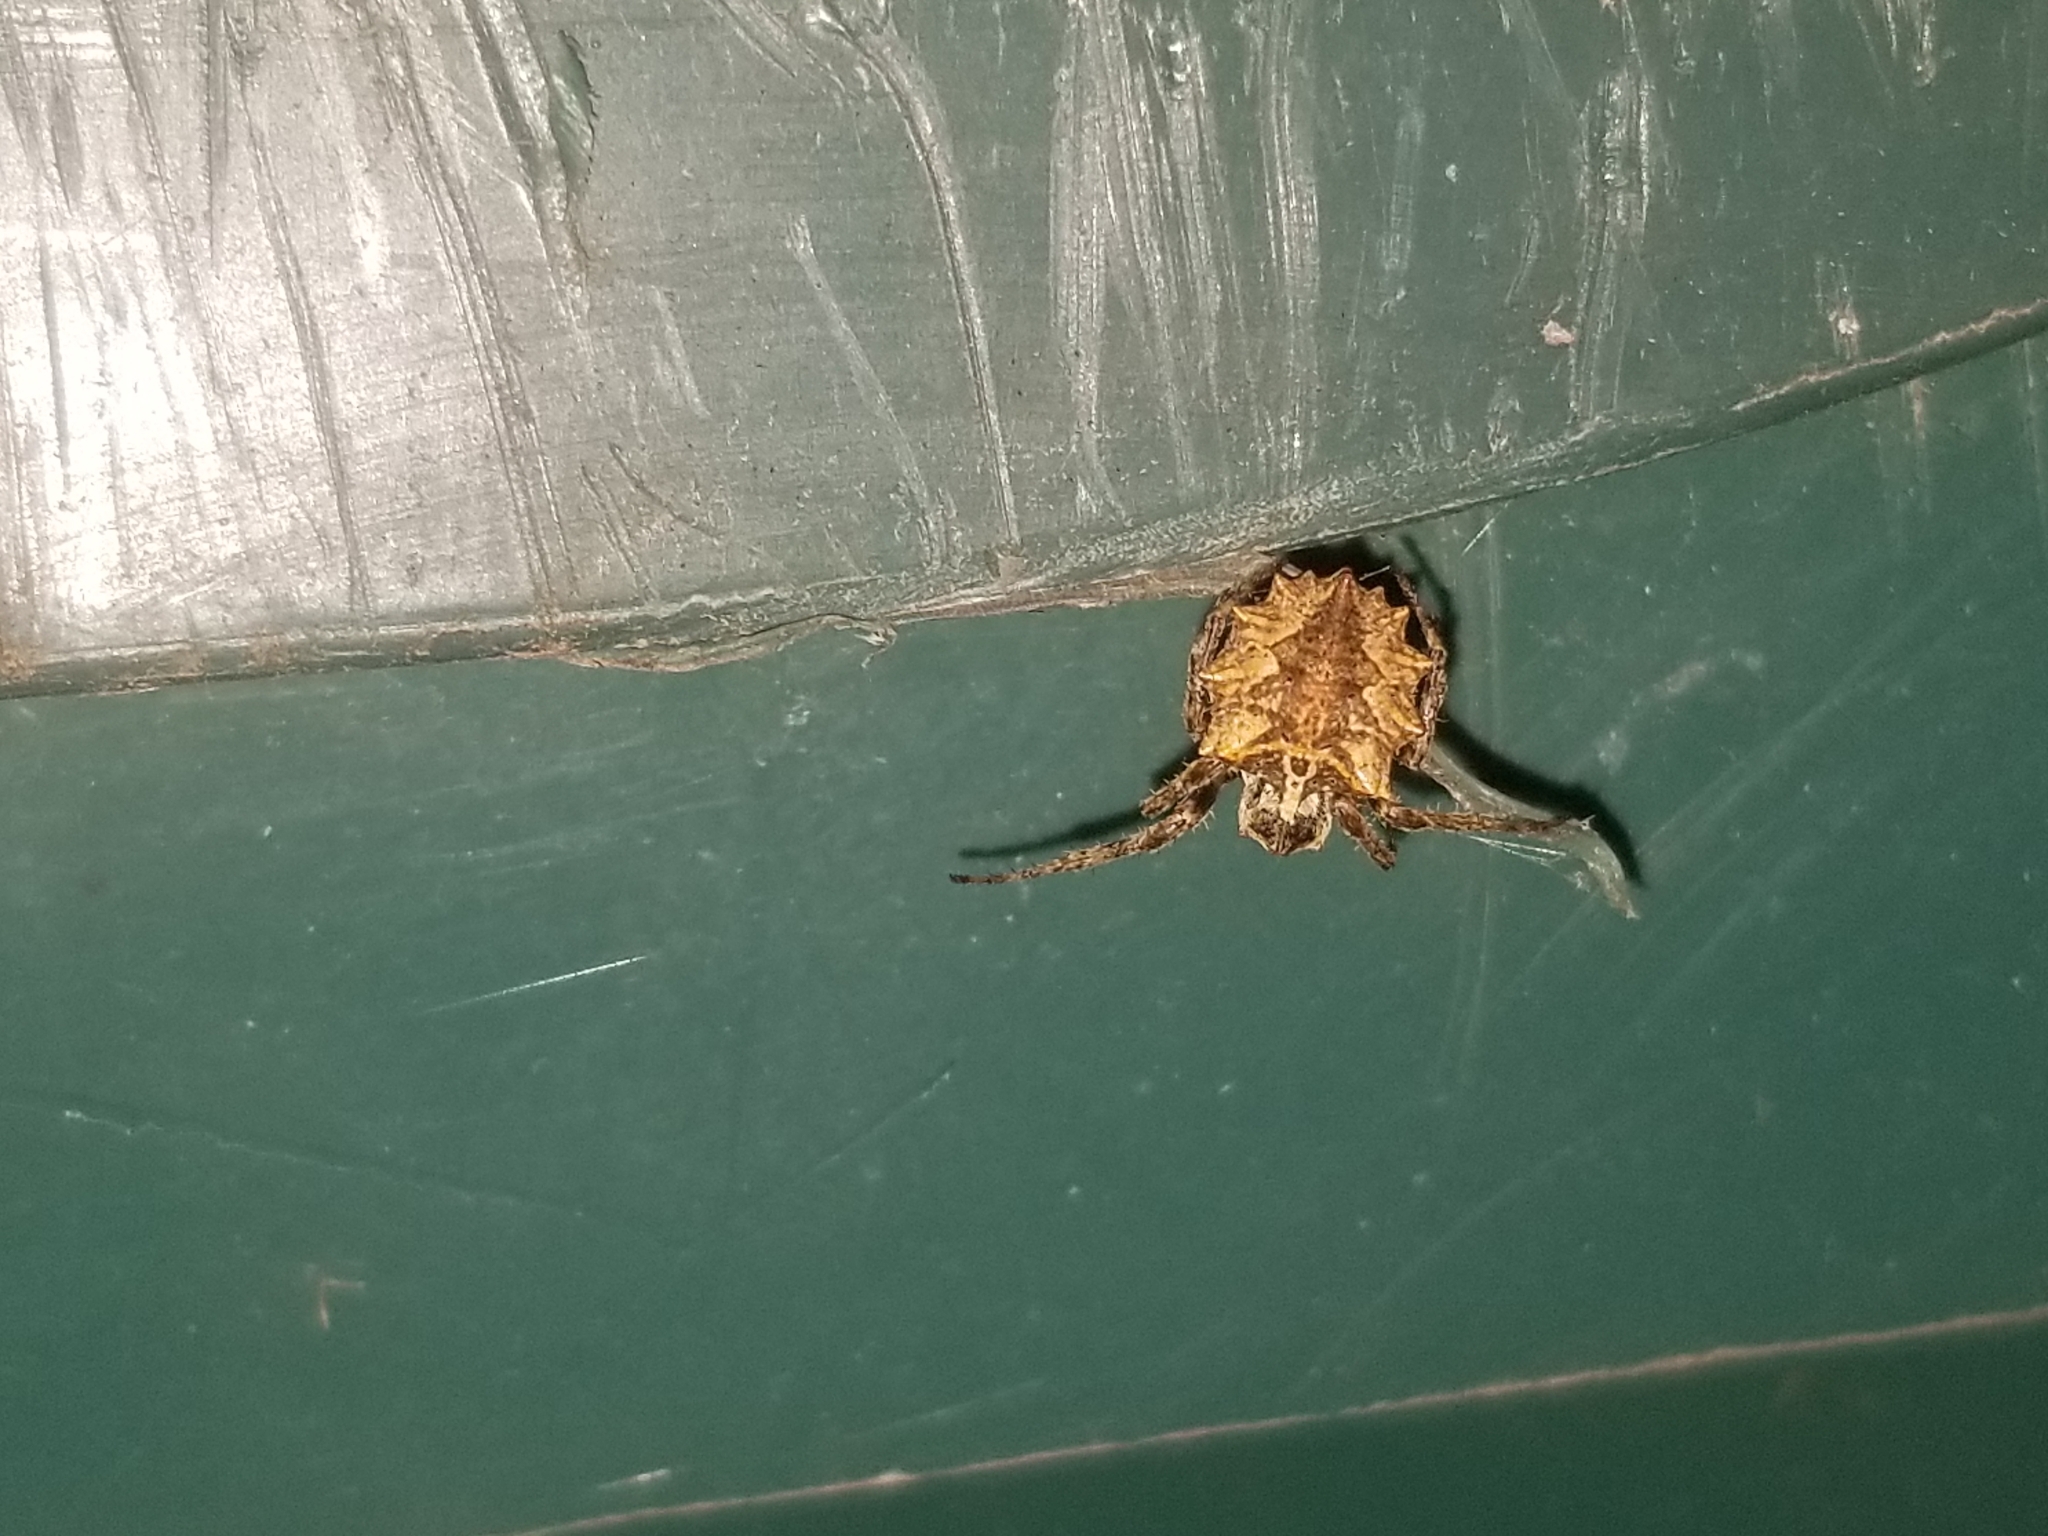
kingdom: Animalia
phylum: Arthropoda
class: Arachnida
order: Araneae
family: Araneidae
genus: Acanthepeira
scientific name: Acanthepeira stellata
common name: Starbellied orbweaver
